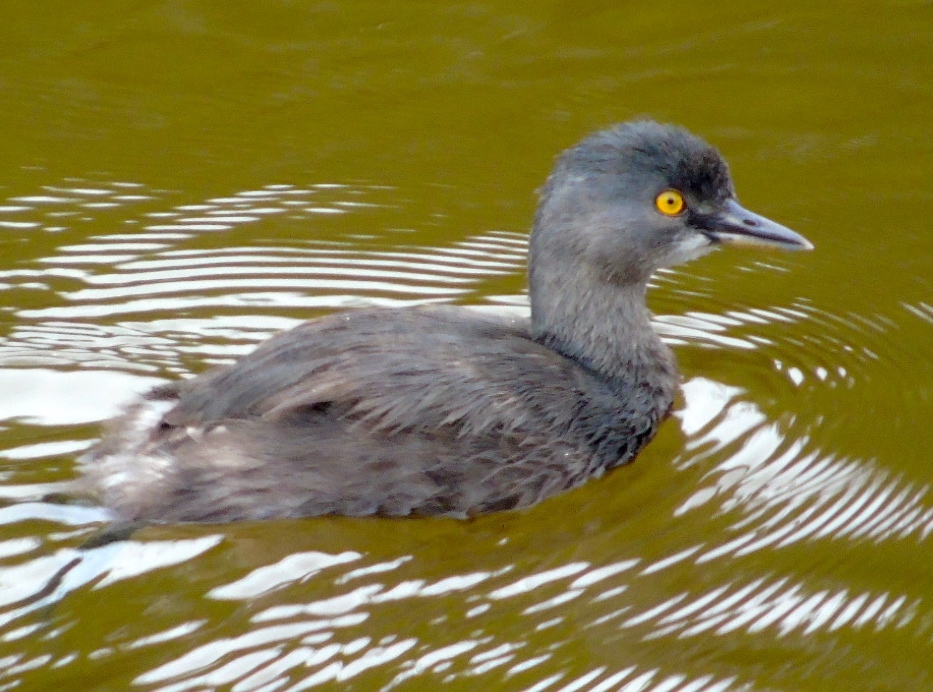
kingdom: Animalia
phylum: Chordata
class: Aves
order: Podicipediformes
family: Podicipedidae
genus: Tachybaptus
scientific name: Tachybaptus dominicus
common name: Least grebe
